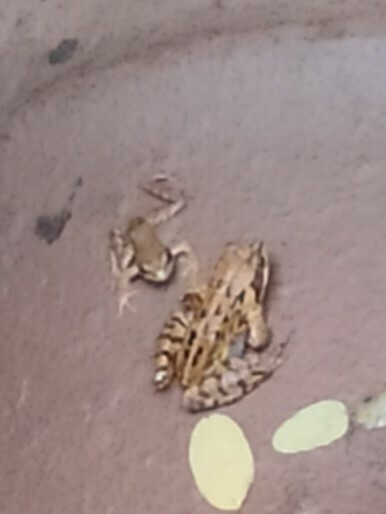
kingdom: Animalia
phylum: Chordata
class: Amphibia
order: Anura
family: Ranidae
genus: Rana
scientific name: Rana temporaria
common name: Common frog
